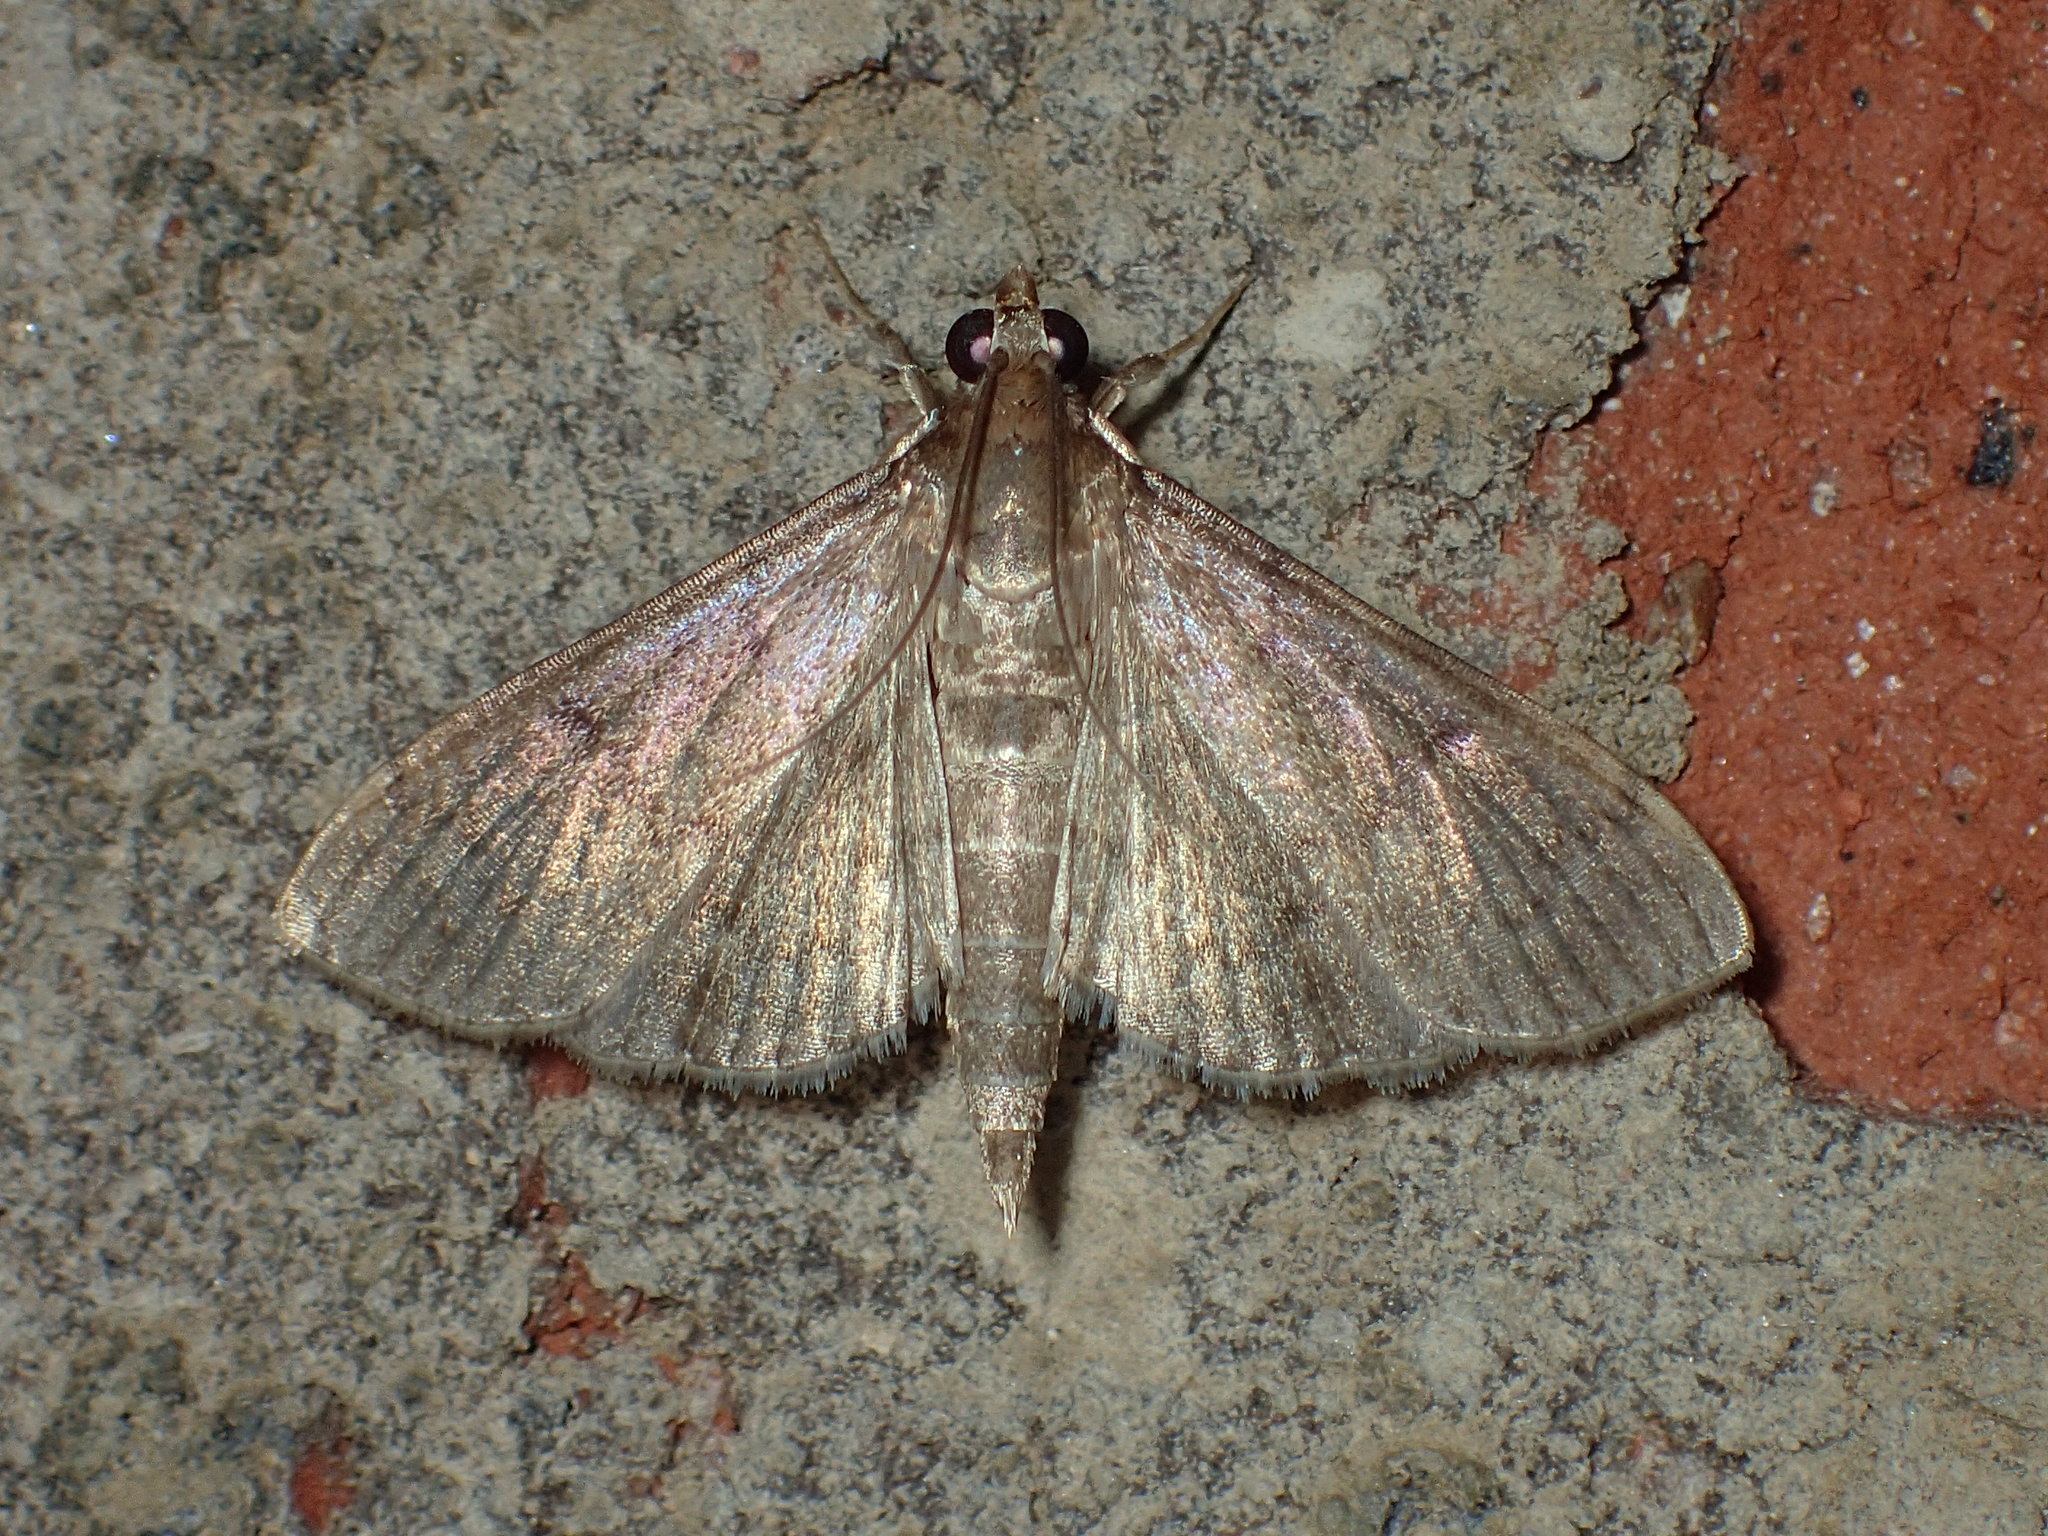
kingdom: Animalia
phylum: Arthropoda
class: Insecta
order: Lepidoptera
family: Crambidae
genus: Herpetogramma
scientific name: Herpetogramma phaeopteralis
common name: Dusky herpetogramma moth
